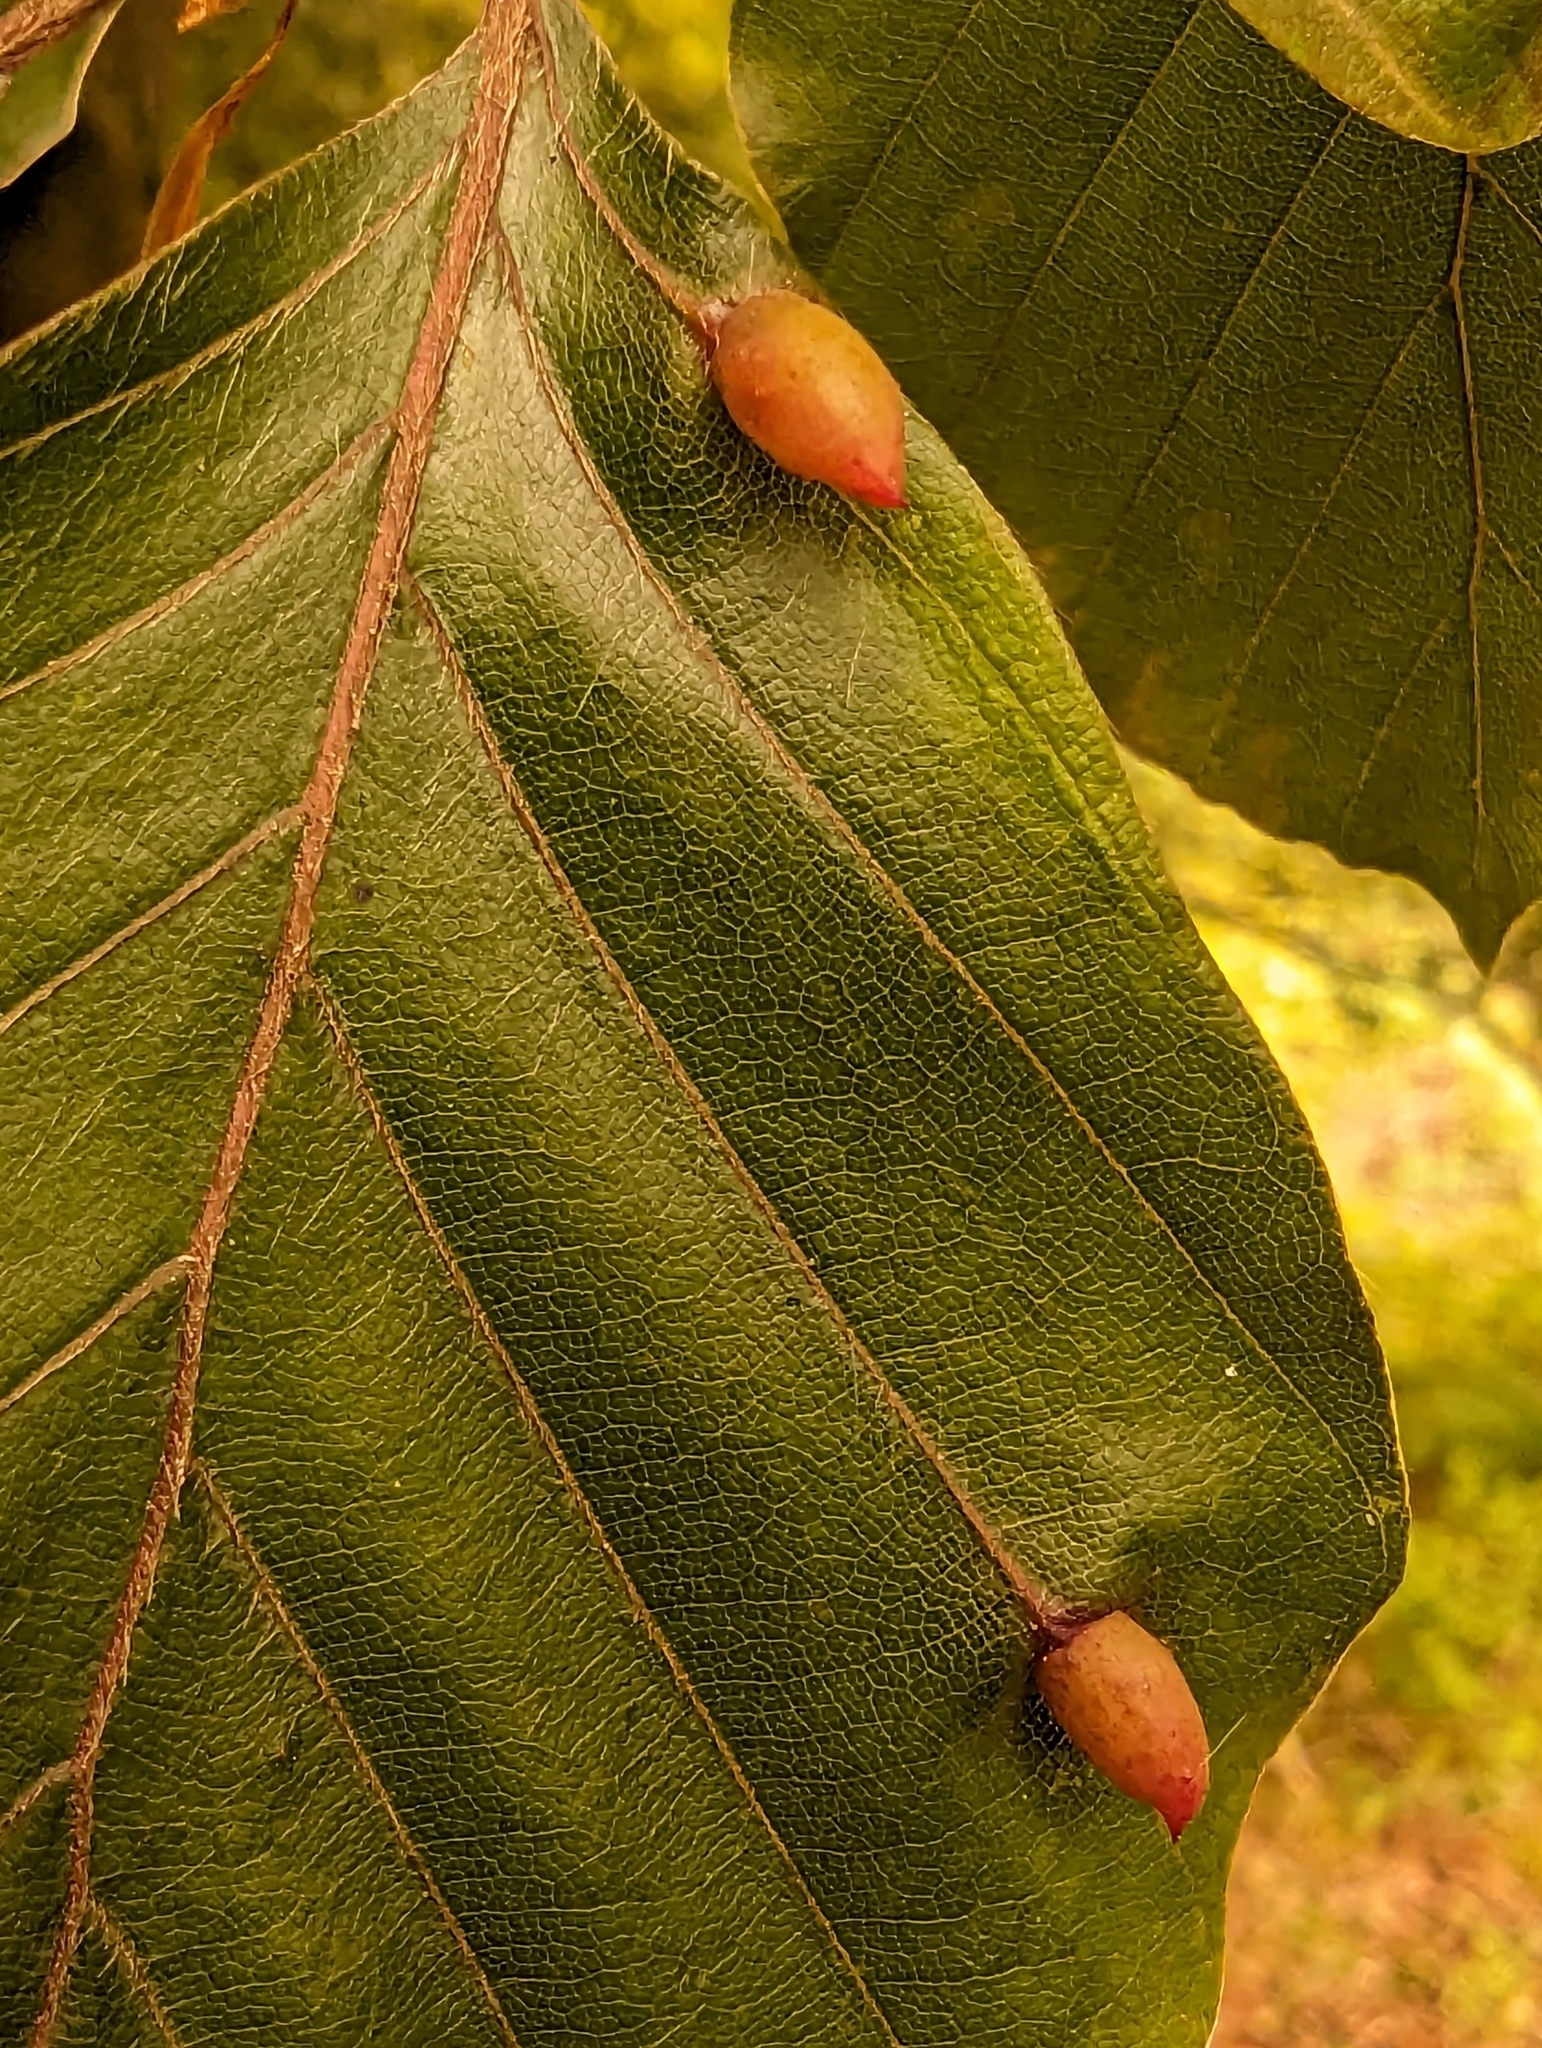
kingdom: Animalia
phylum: Arthropoda
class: Insecta
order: Diptera
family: Cecidomyiidae
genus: Mikiola
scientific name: Mikiola fagi
